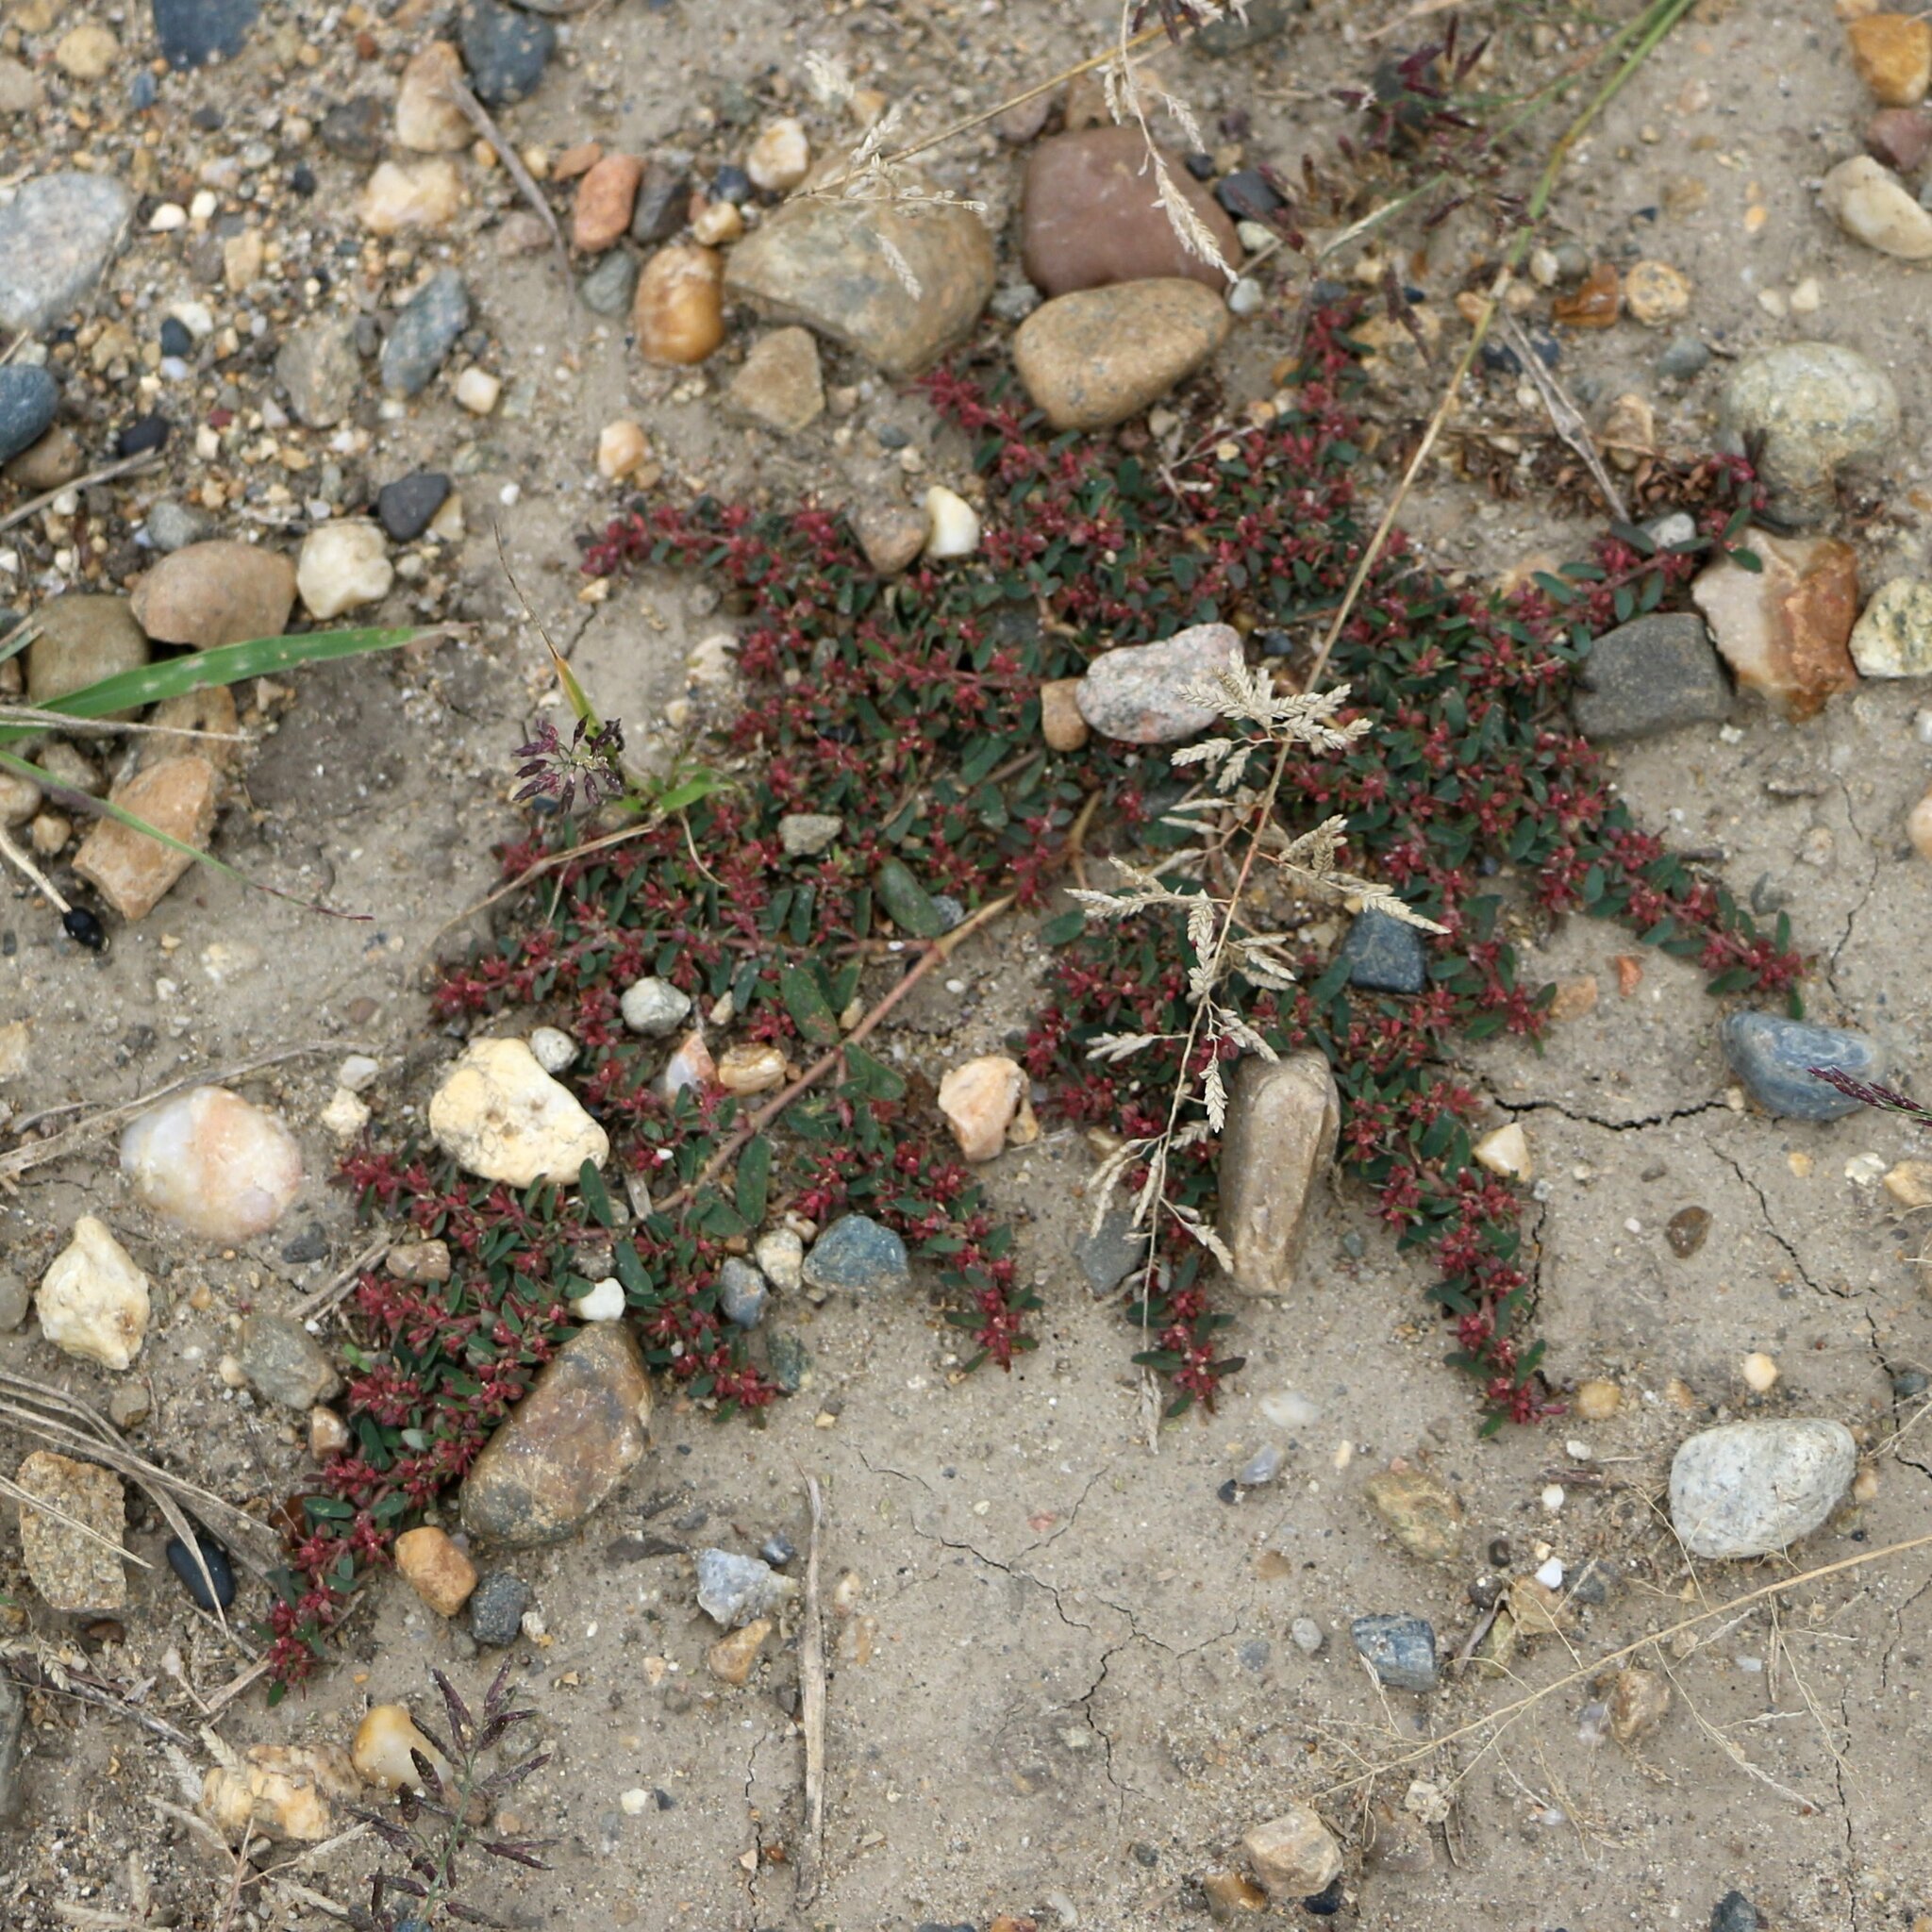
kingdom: Plantae
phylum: Tracheophyta
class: Magnoliopsida
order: Malpighiales
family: Euphorbiaceae
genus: Euphorbia
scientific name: Euphorbia maculata
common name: Spotted spurge
